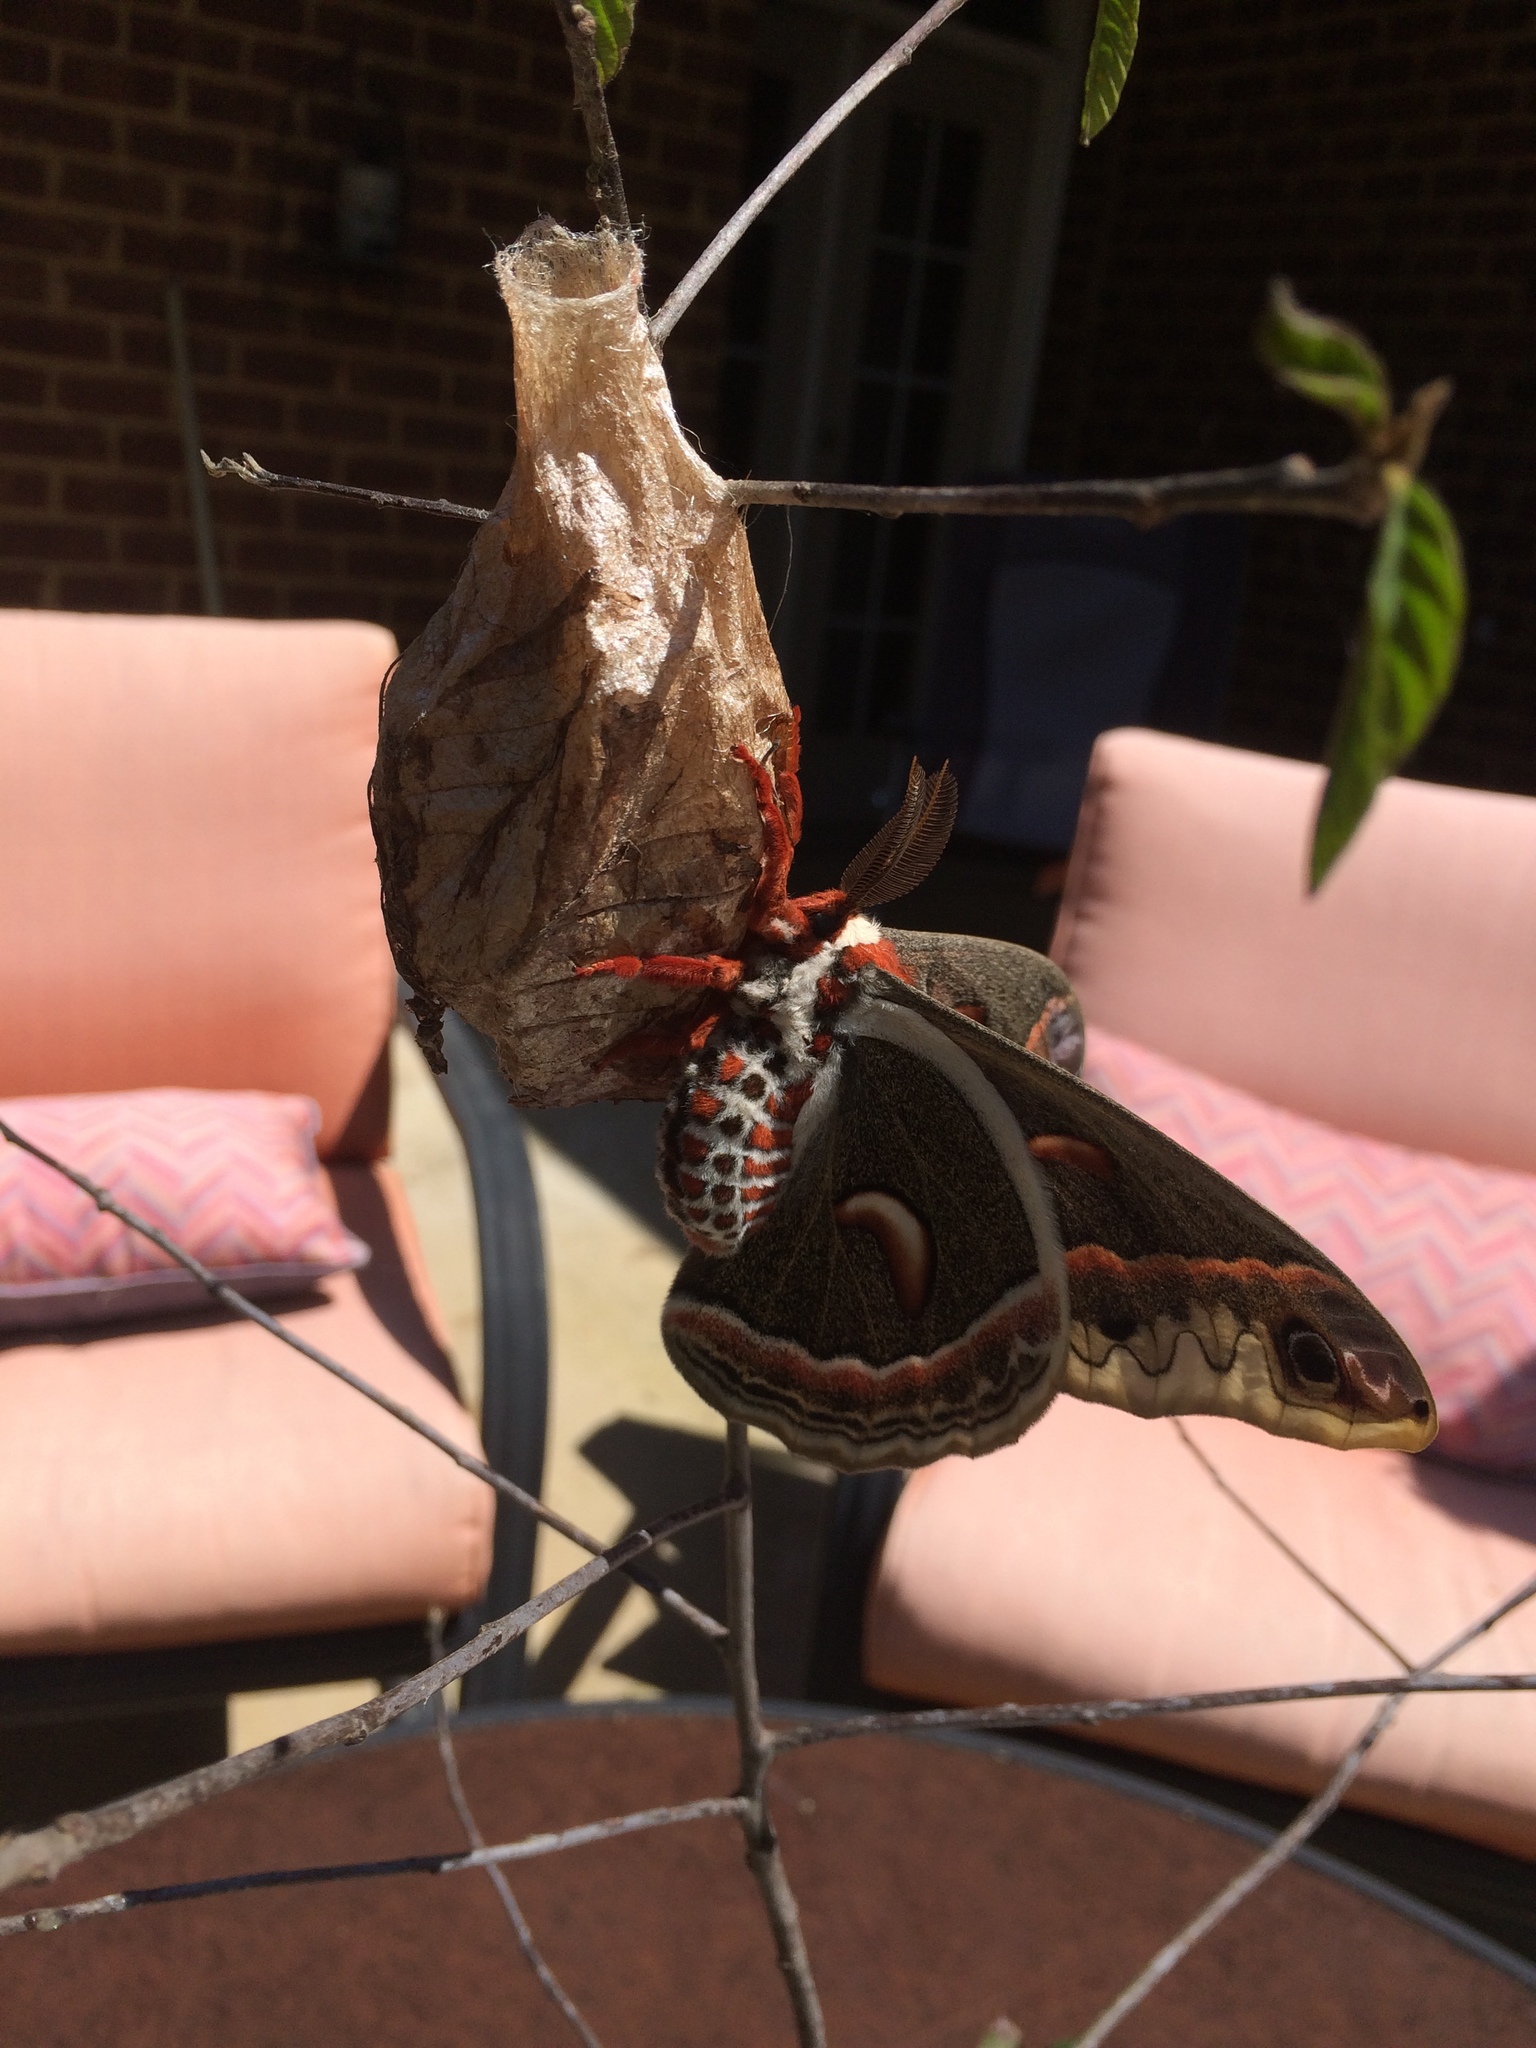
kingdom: Animalia
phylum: Arthropoda
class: Insecta
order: Lepidoptera
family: Saturniidae
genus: Hyalophora
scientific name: Hyalophora cecropia
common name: Cecropia silkmoth
